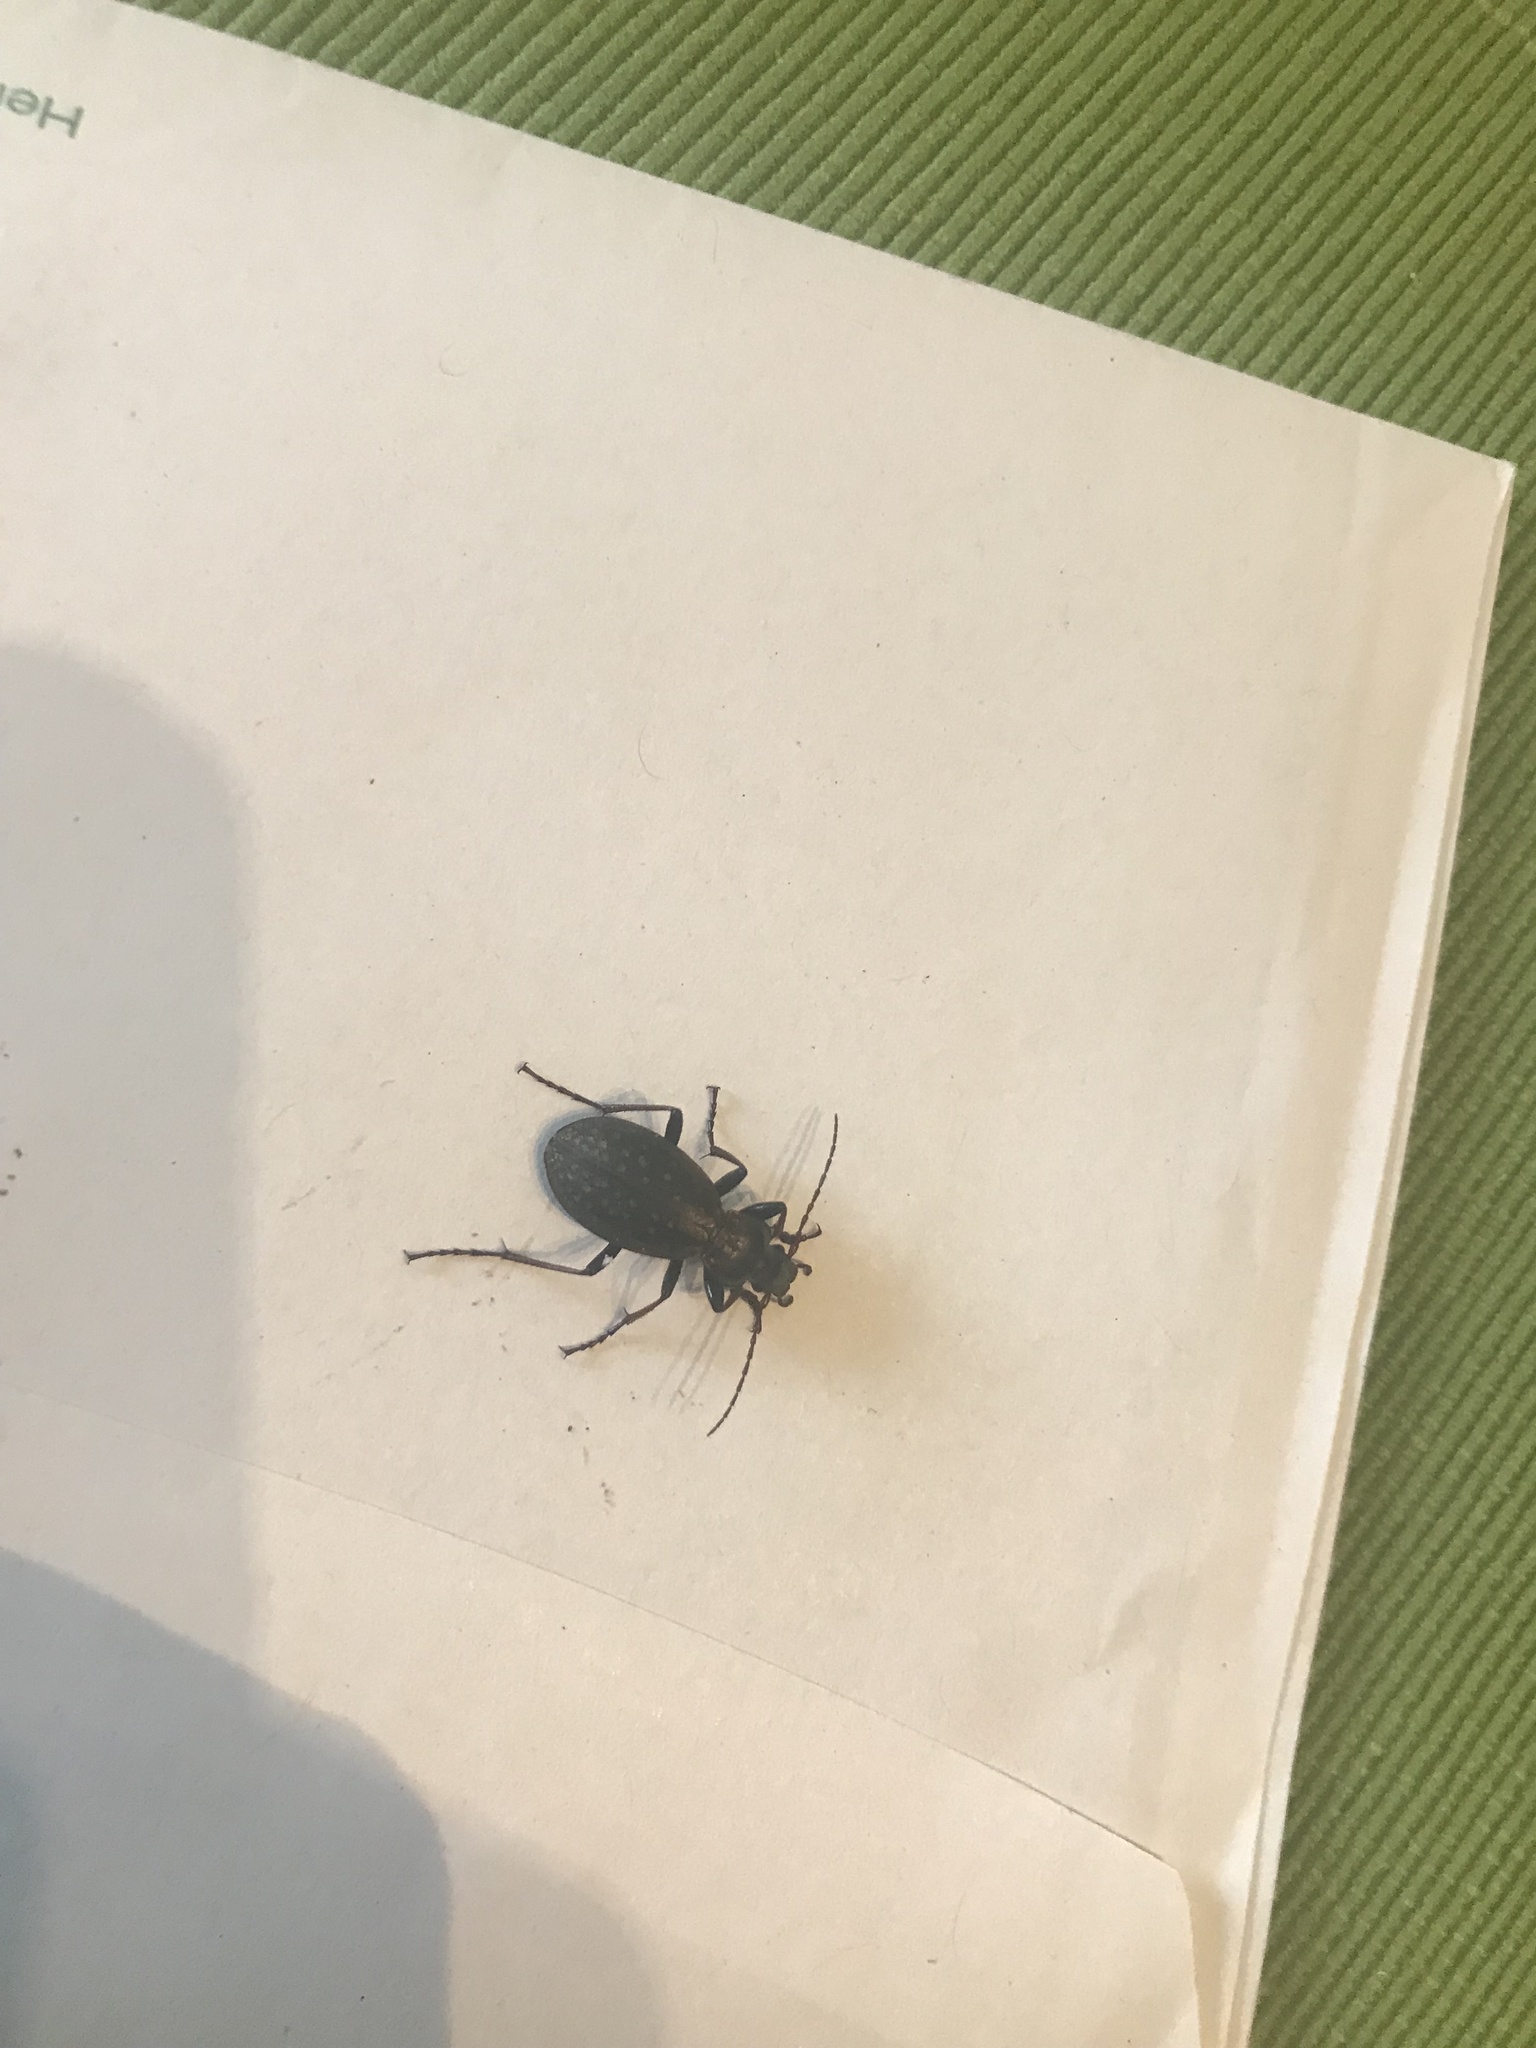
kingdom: Animalia
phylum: Arthropoda
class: Insecta
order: Coleoptera
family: Carabidae
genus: Carabus
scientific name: Carabus fabricii
